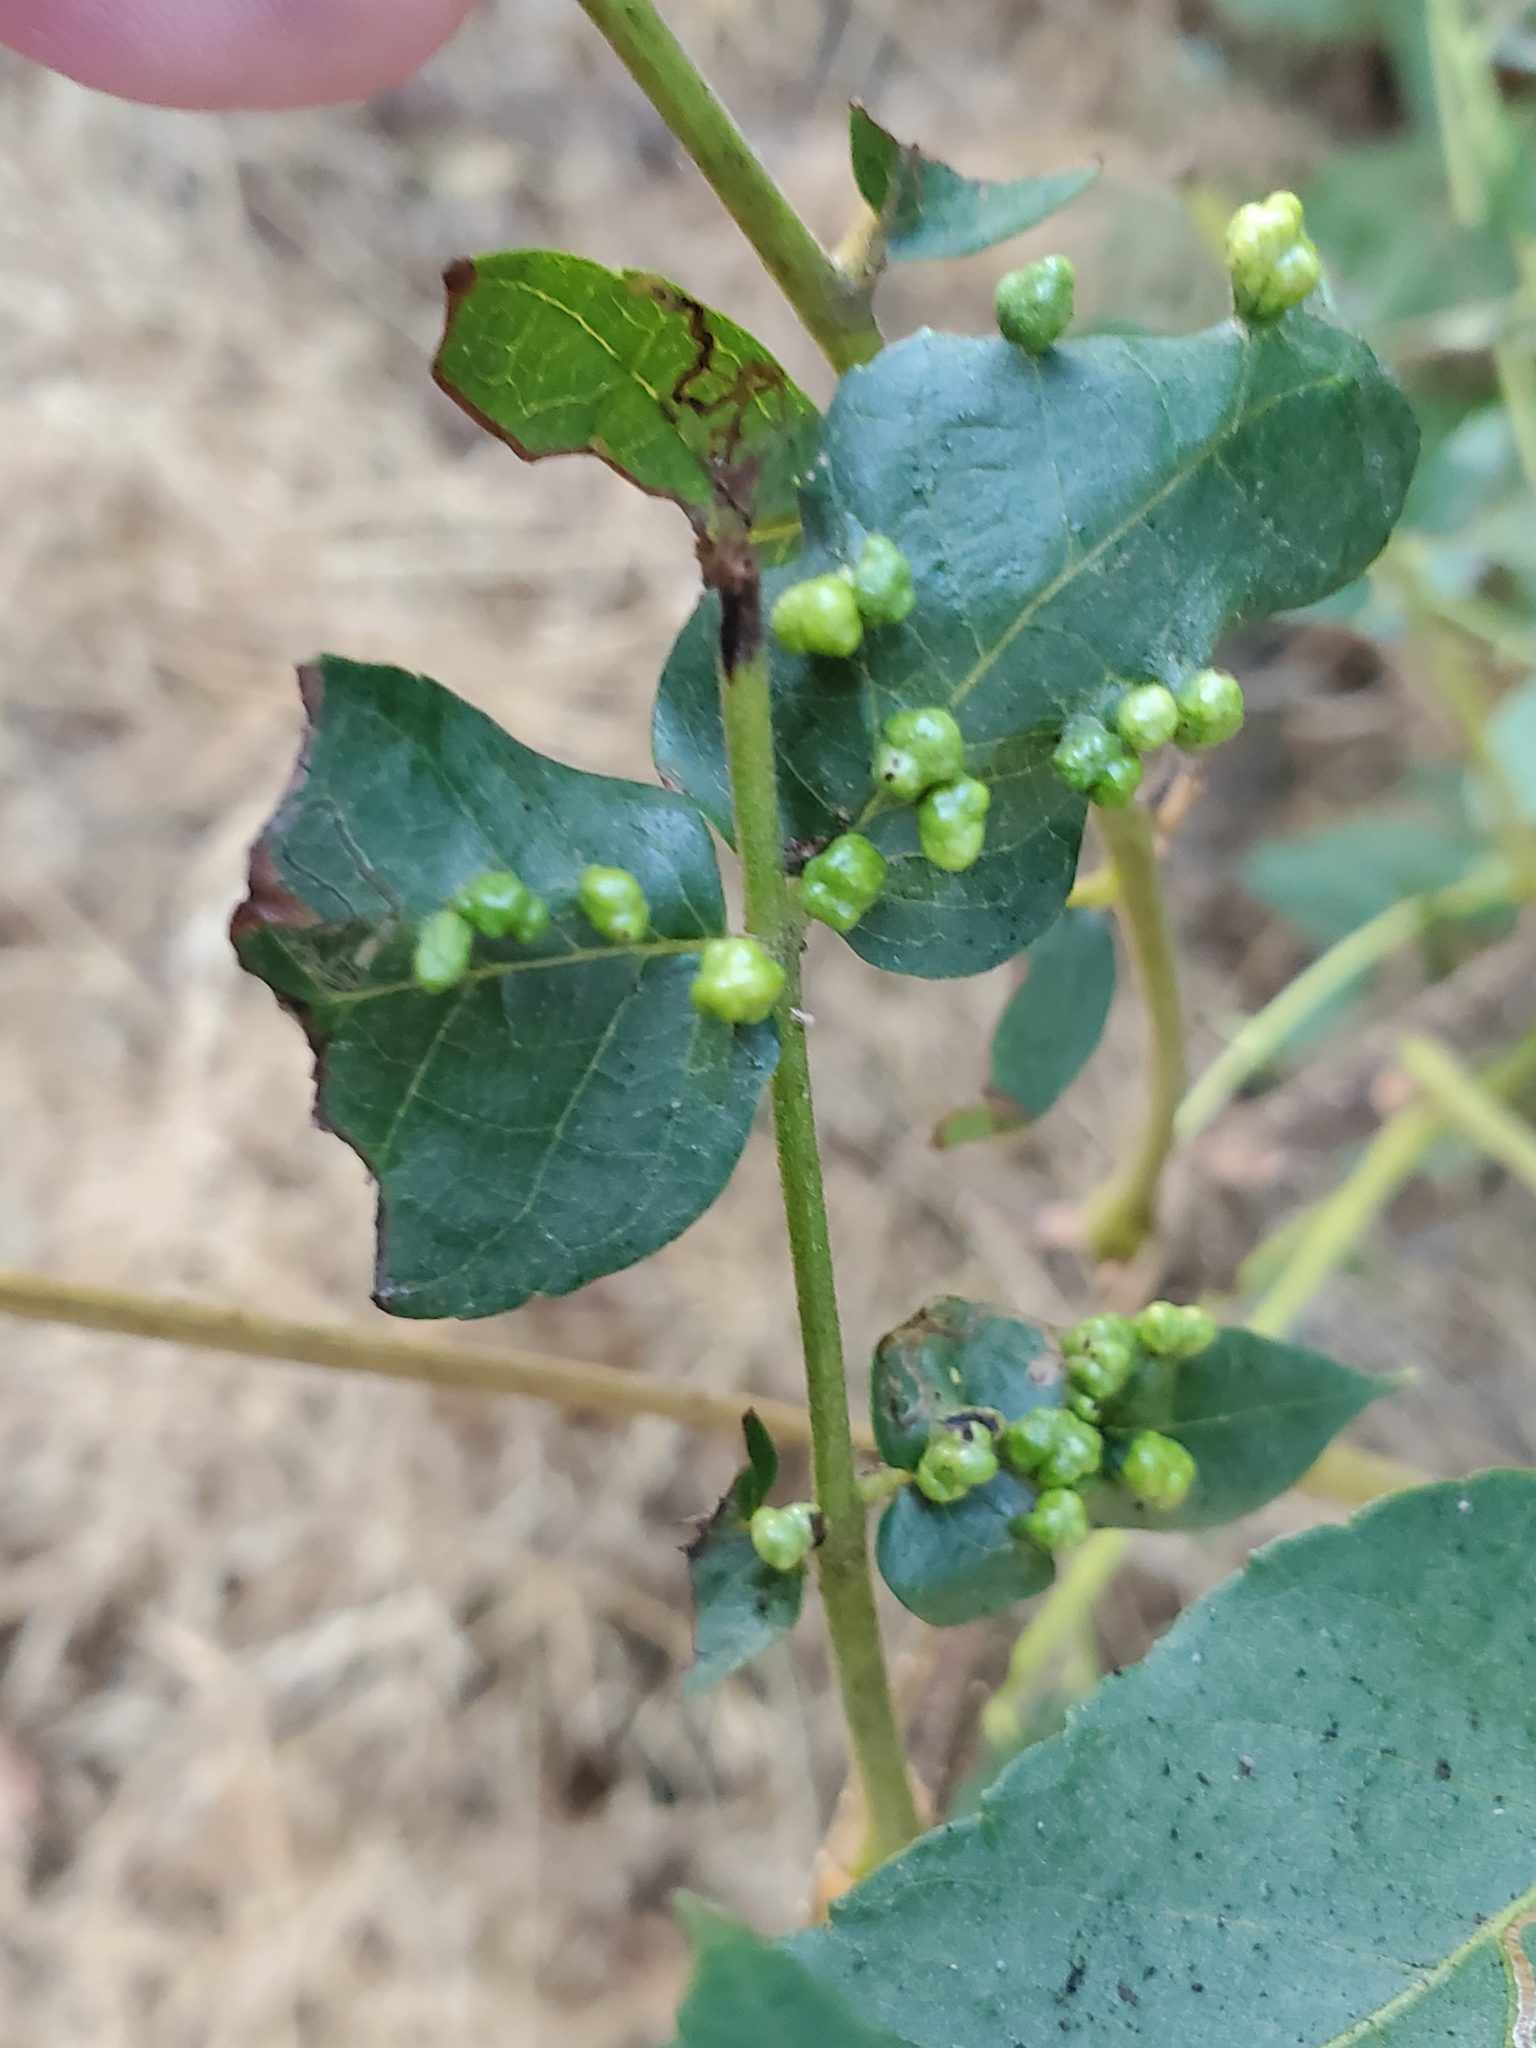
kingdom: Animalia
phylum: Arthropoda
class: Arachnida
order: Trombidiformes
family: Eriophyidae
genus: Aceria
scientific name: Aceria brachytarsus
